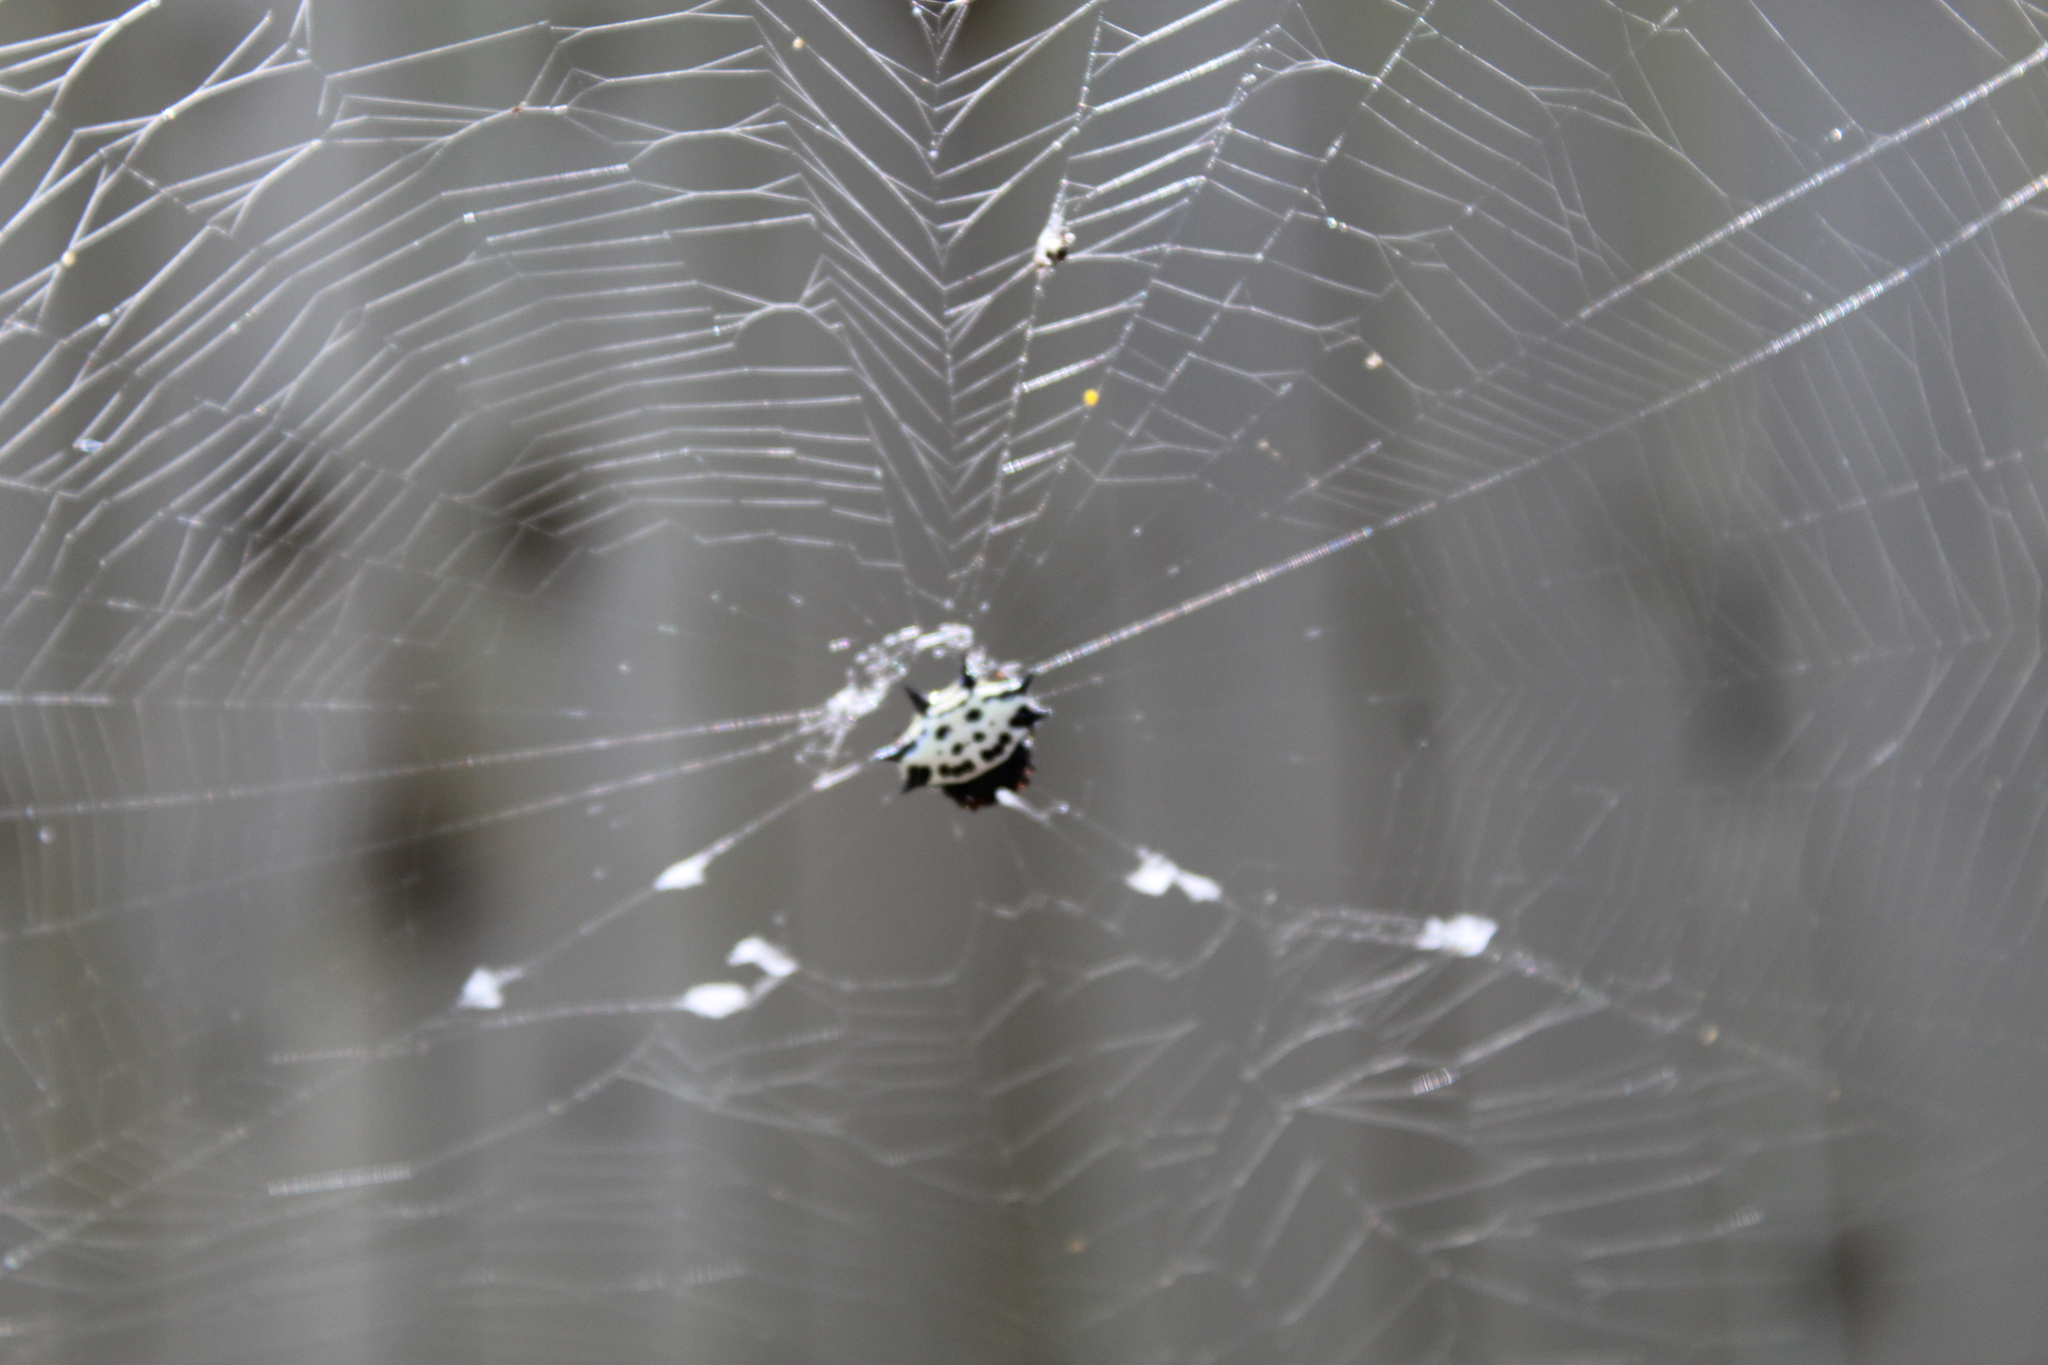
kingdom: Animalia
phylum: Arthropoda
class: Arachnida
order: Araneae
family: Araneidae
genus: Gasteracantha
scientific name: Gasteracantha cancriformis
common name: Orb weavers
